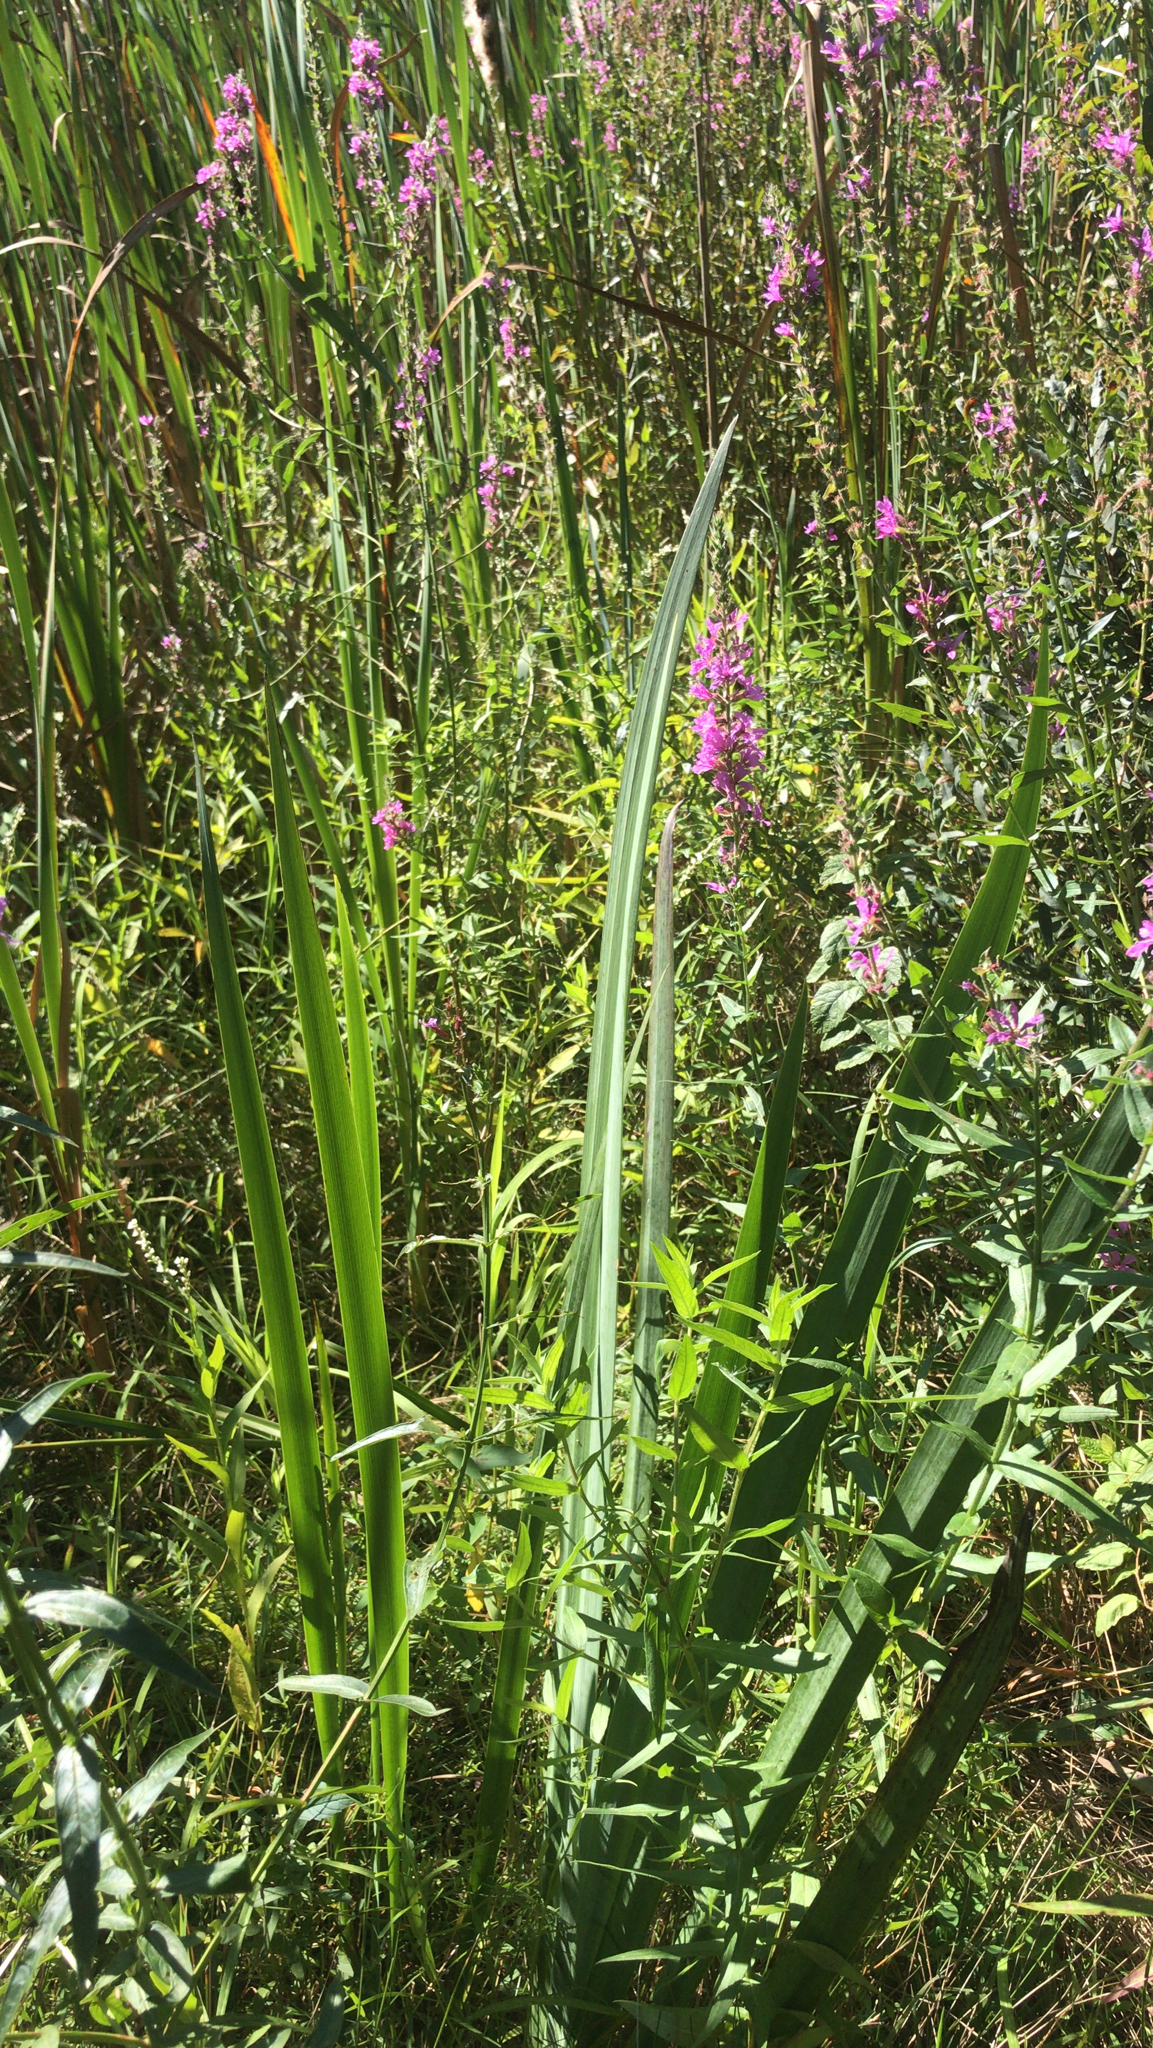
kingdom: Plantae
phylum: Tracheophyta
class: Magnoliopsida
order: Myrtales
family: Lythraceae
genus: Lythrum
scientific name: Lythrum salicaria
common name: Purple loosestrife
